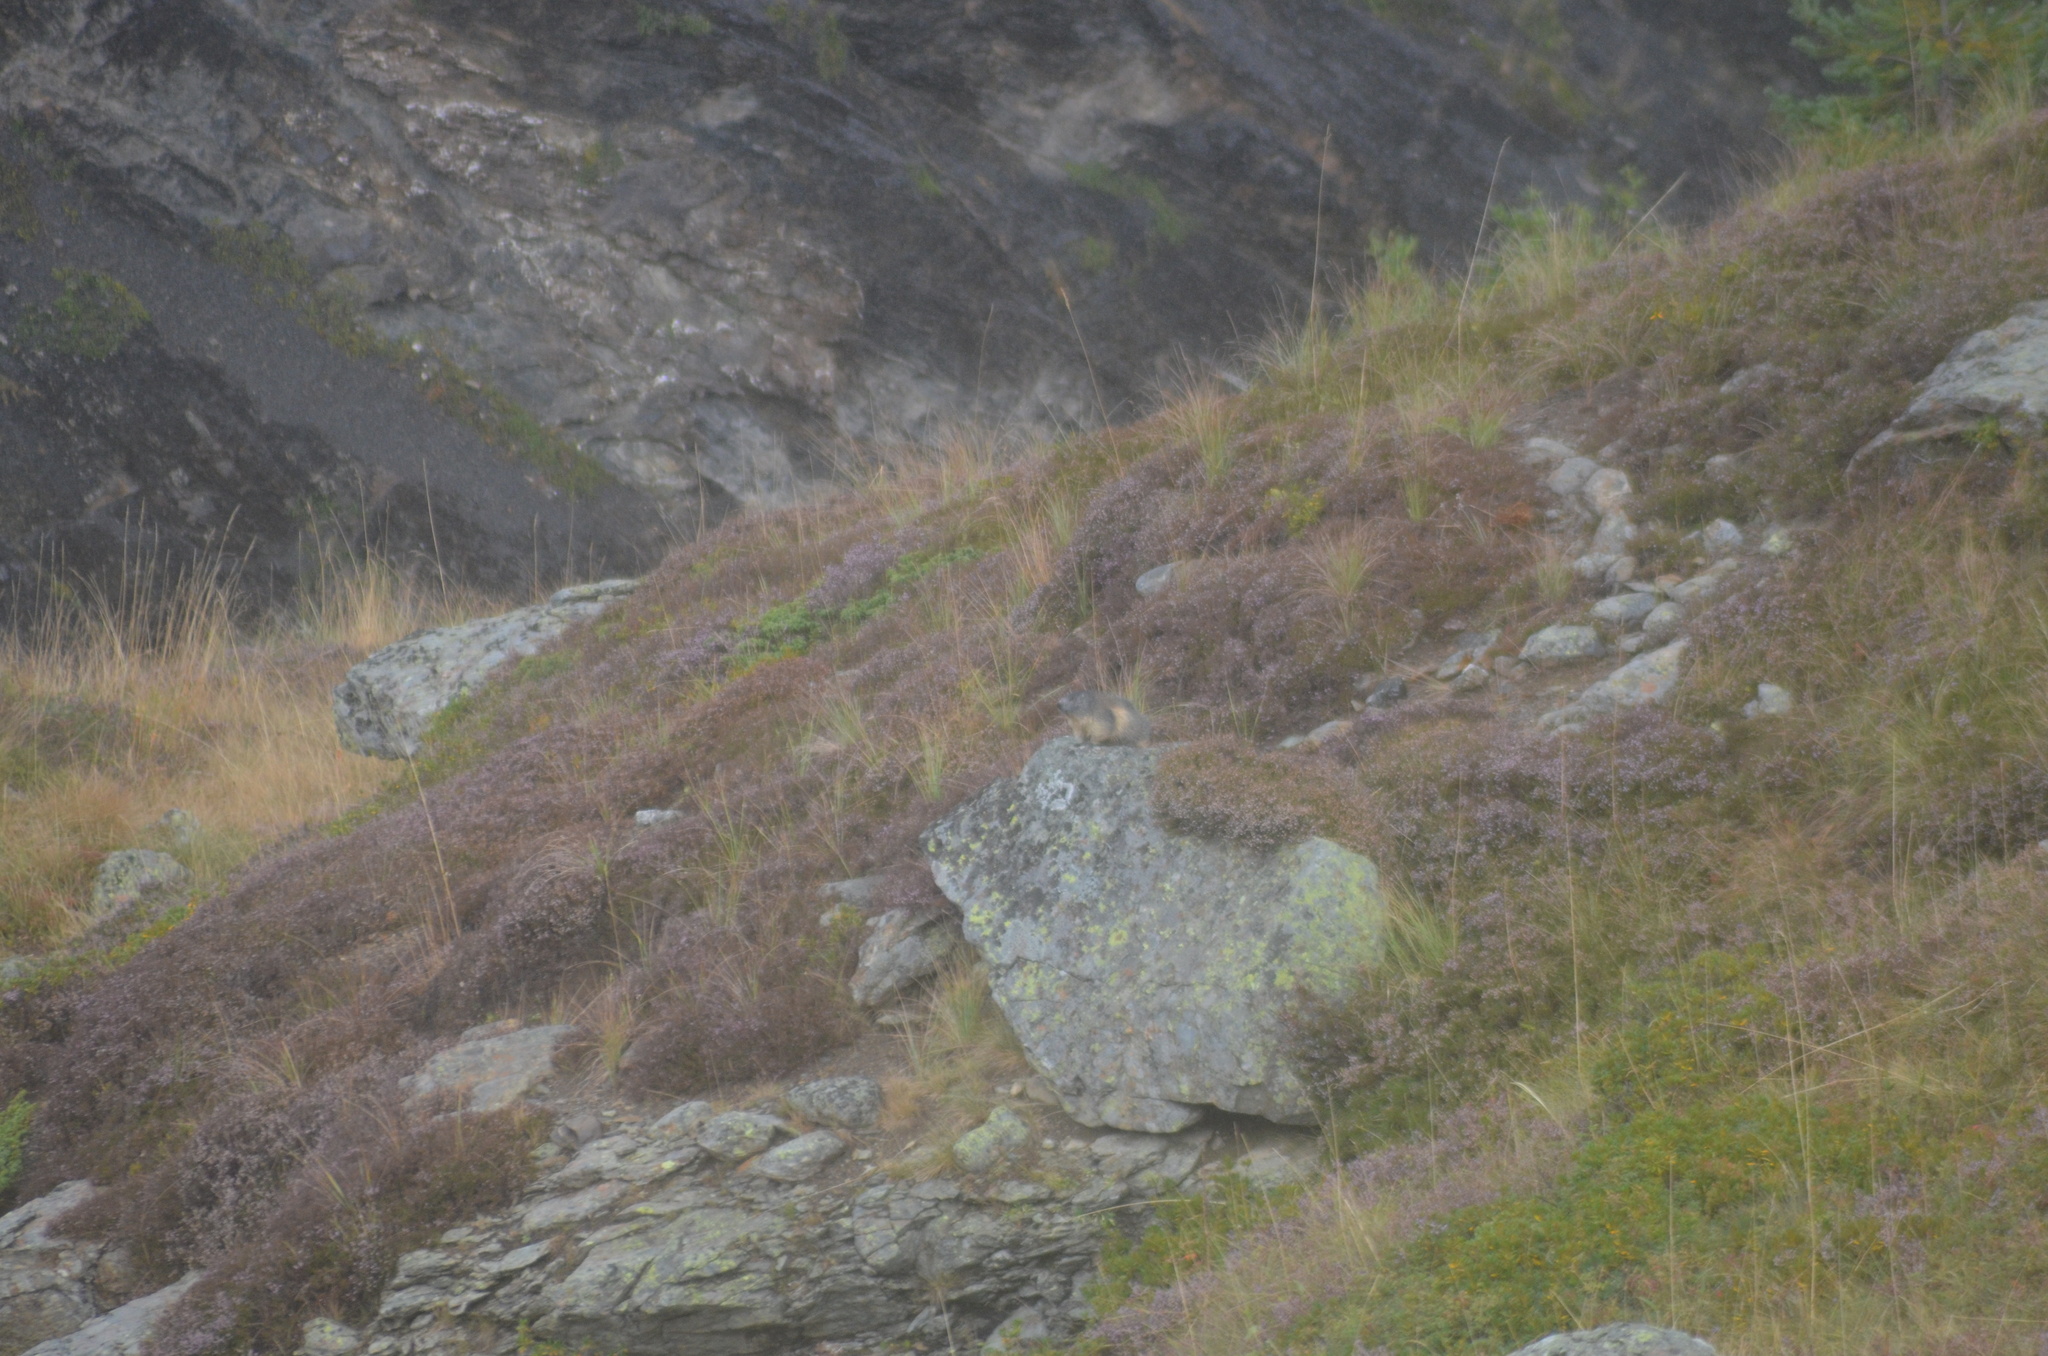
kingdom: Animalia
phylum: Chordata
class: Mammalia
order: Rodentia
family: Sciuridae
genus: Marmota
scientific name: Marmota marmota
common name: Alpine marmot
